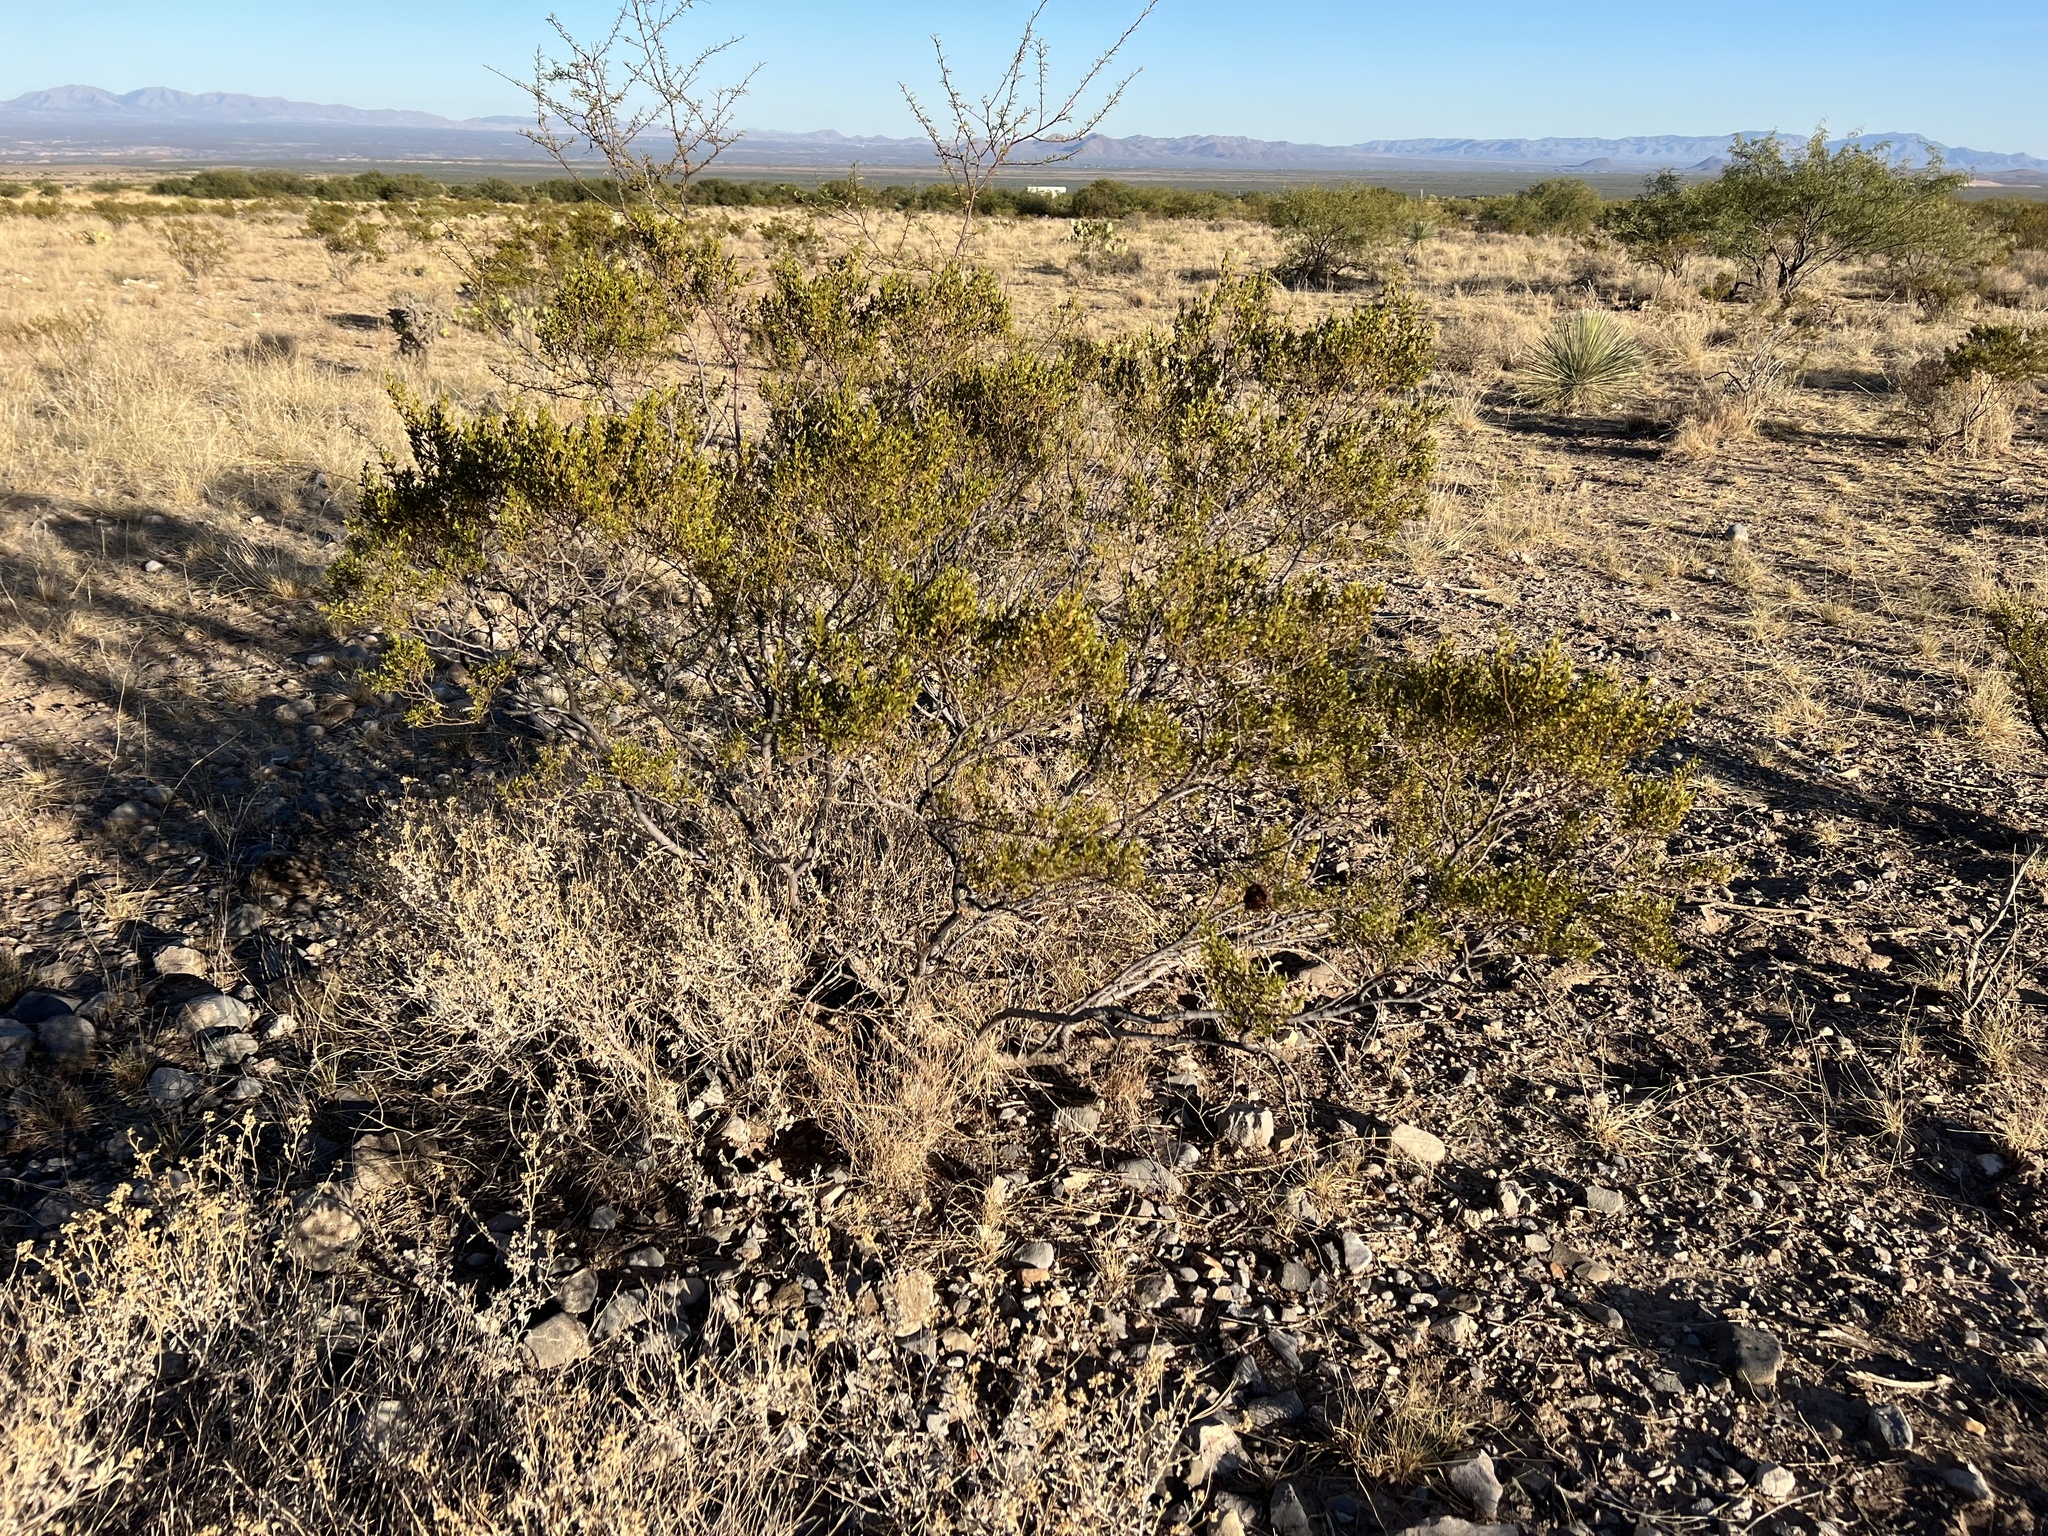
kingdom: Plantae
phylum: Tracheophyta
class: Magnoliopsida
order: Zygophyllales
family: Zygophyllaceae
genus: Larrea
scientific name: Larrea tridentata
